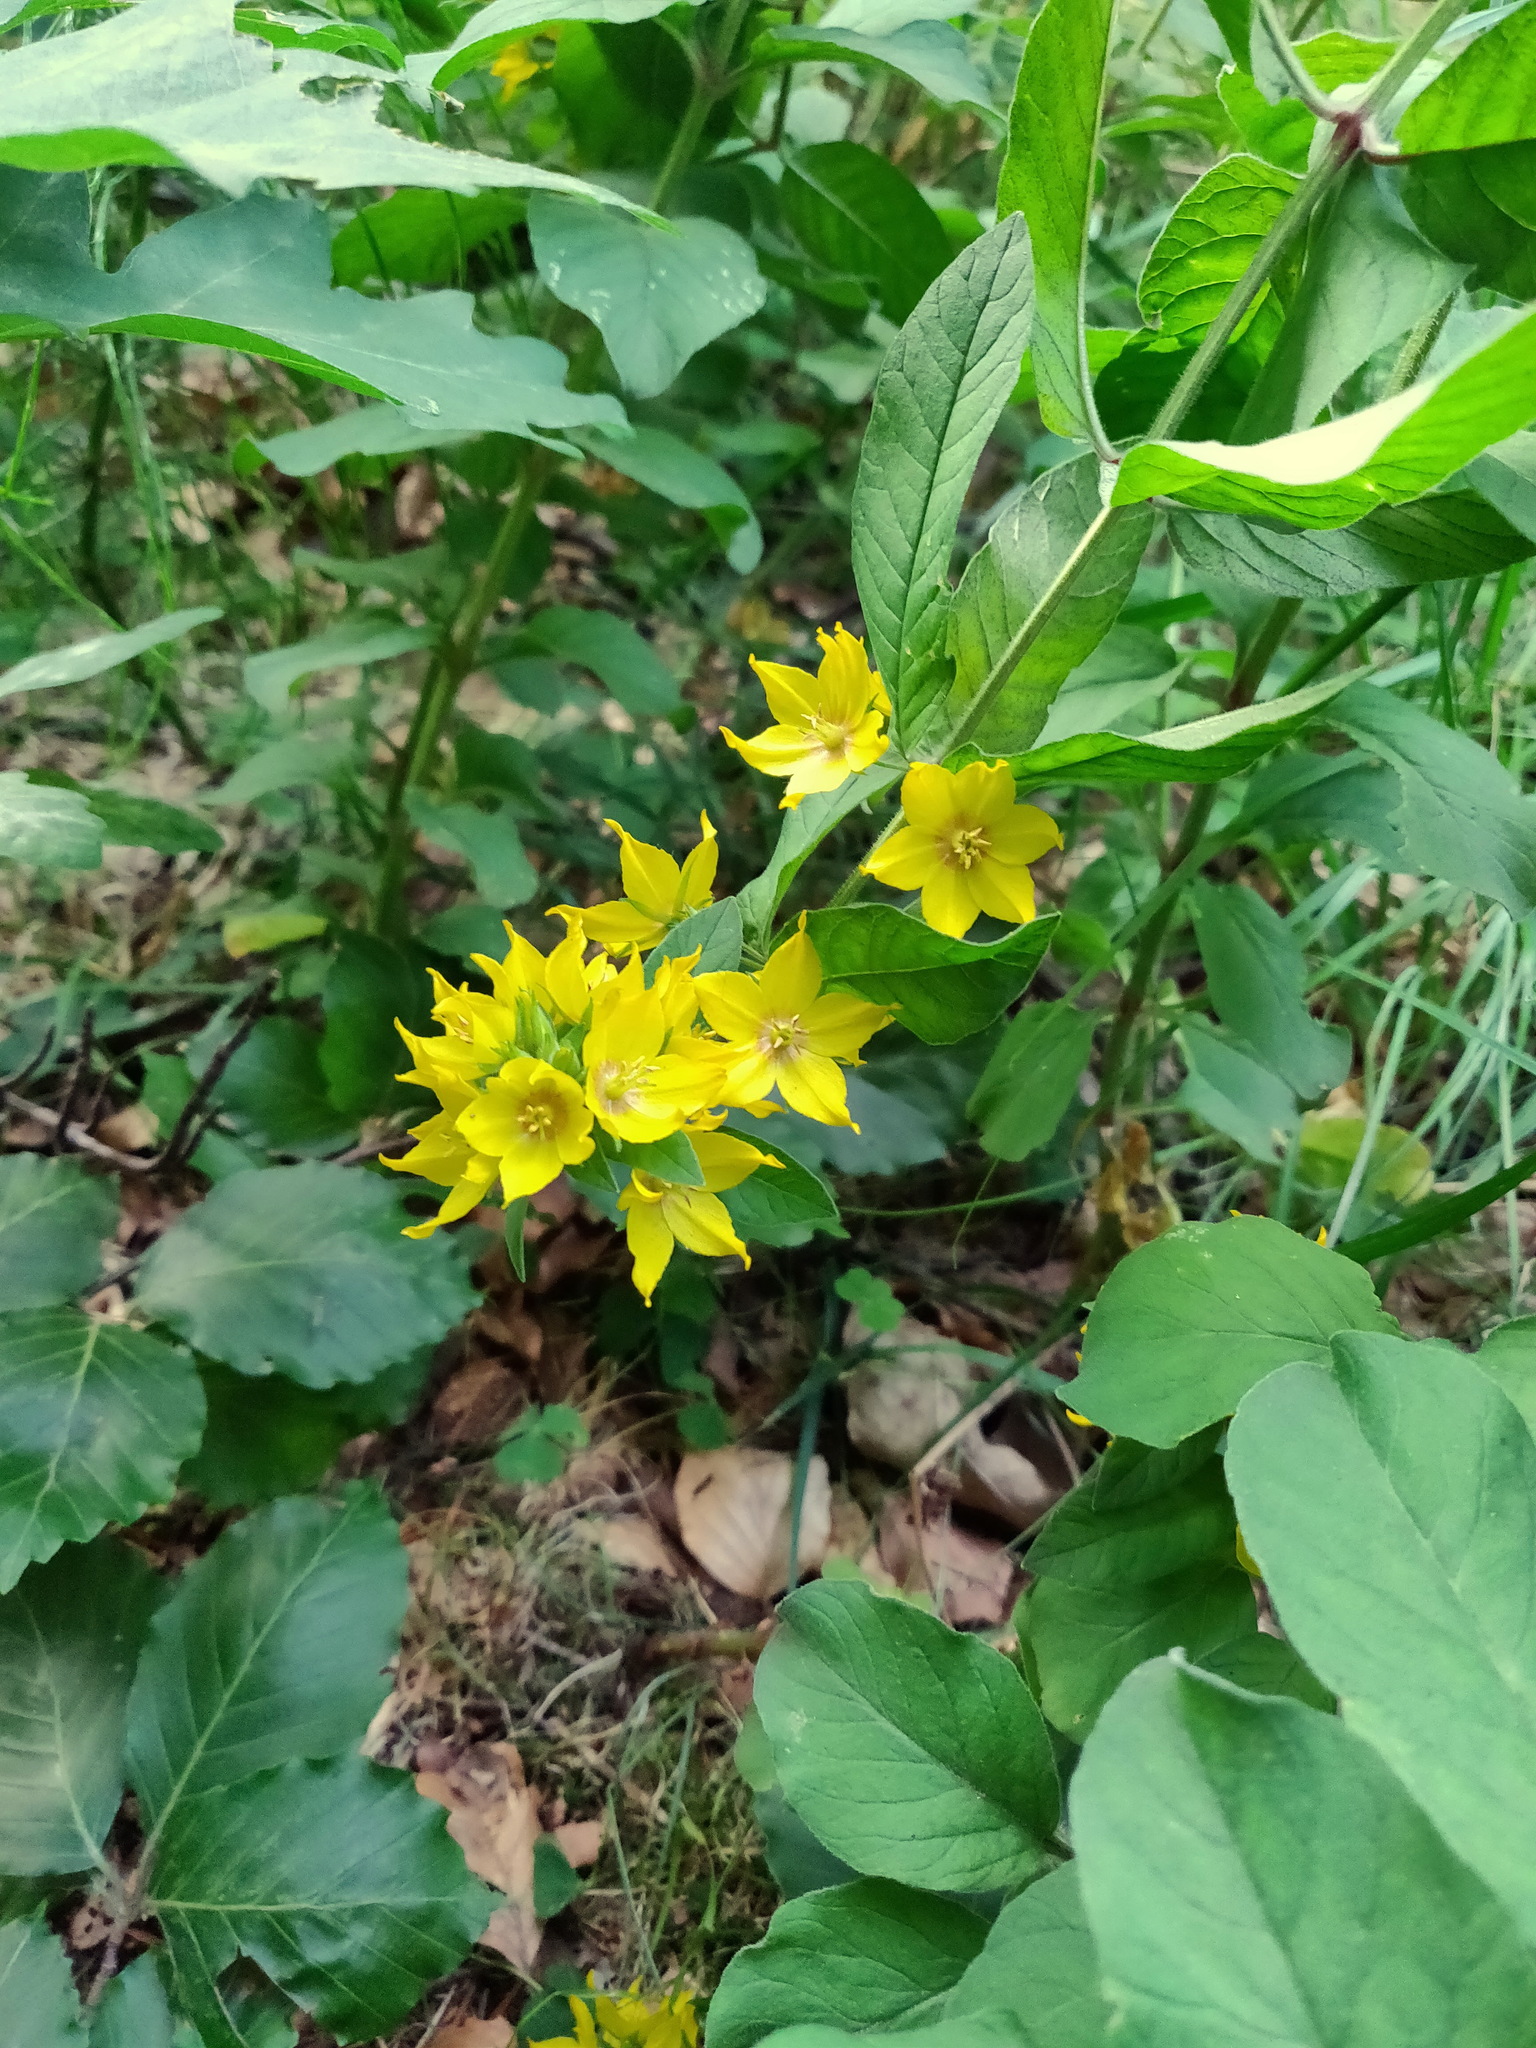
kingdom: Plantae
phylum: Tracheophyta
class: Magnoliopsida
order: Ericales
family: Primulaceae
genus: Lysimachia
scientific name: Lysimachia punctata
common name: Dotted loosestrife
